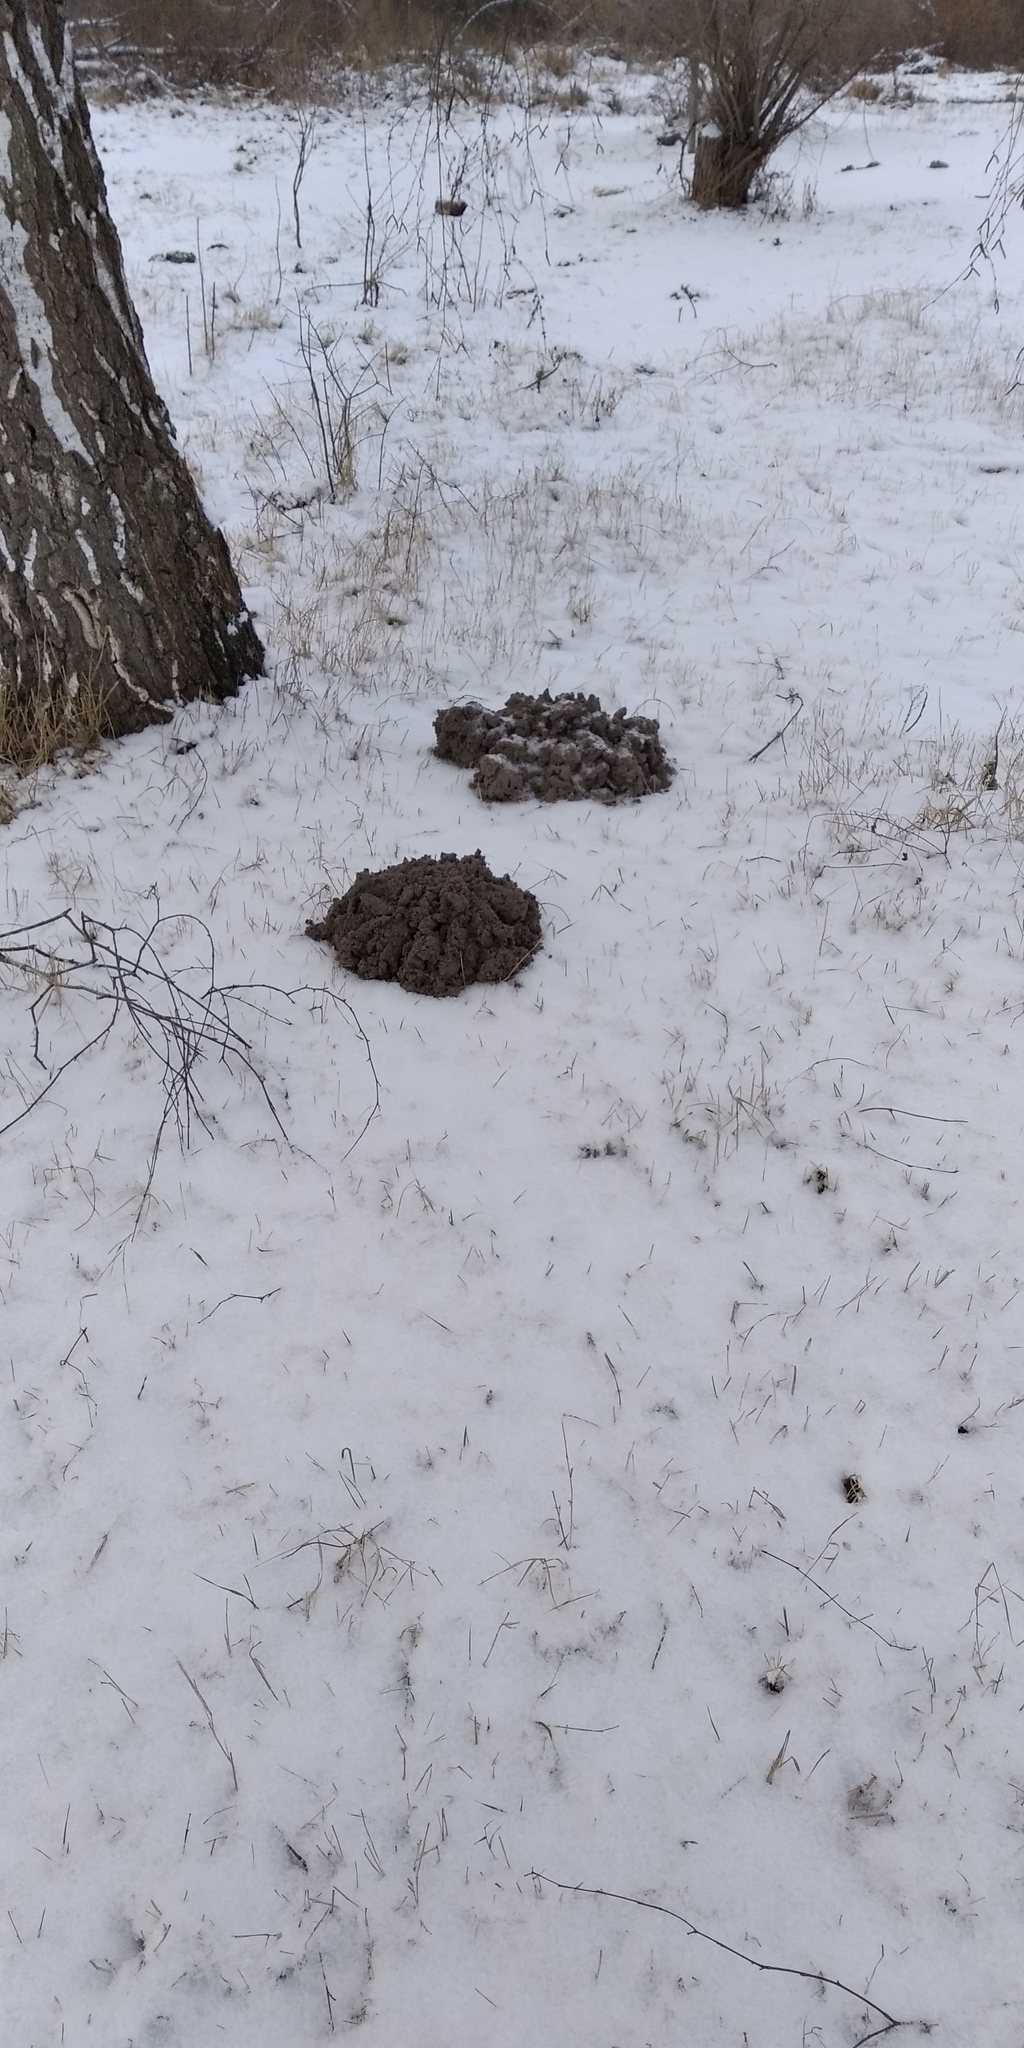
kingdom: Animalia
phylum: Chordata
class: Mammalia
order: Soricomorpha
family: Talpidae
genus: Talpa
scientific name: Talpa europaea
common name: European mole
